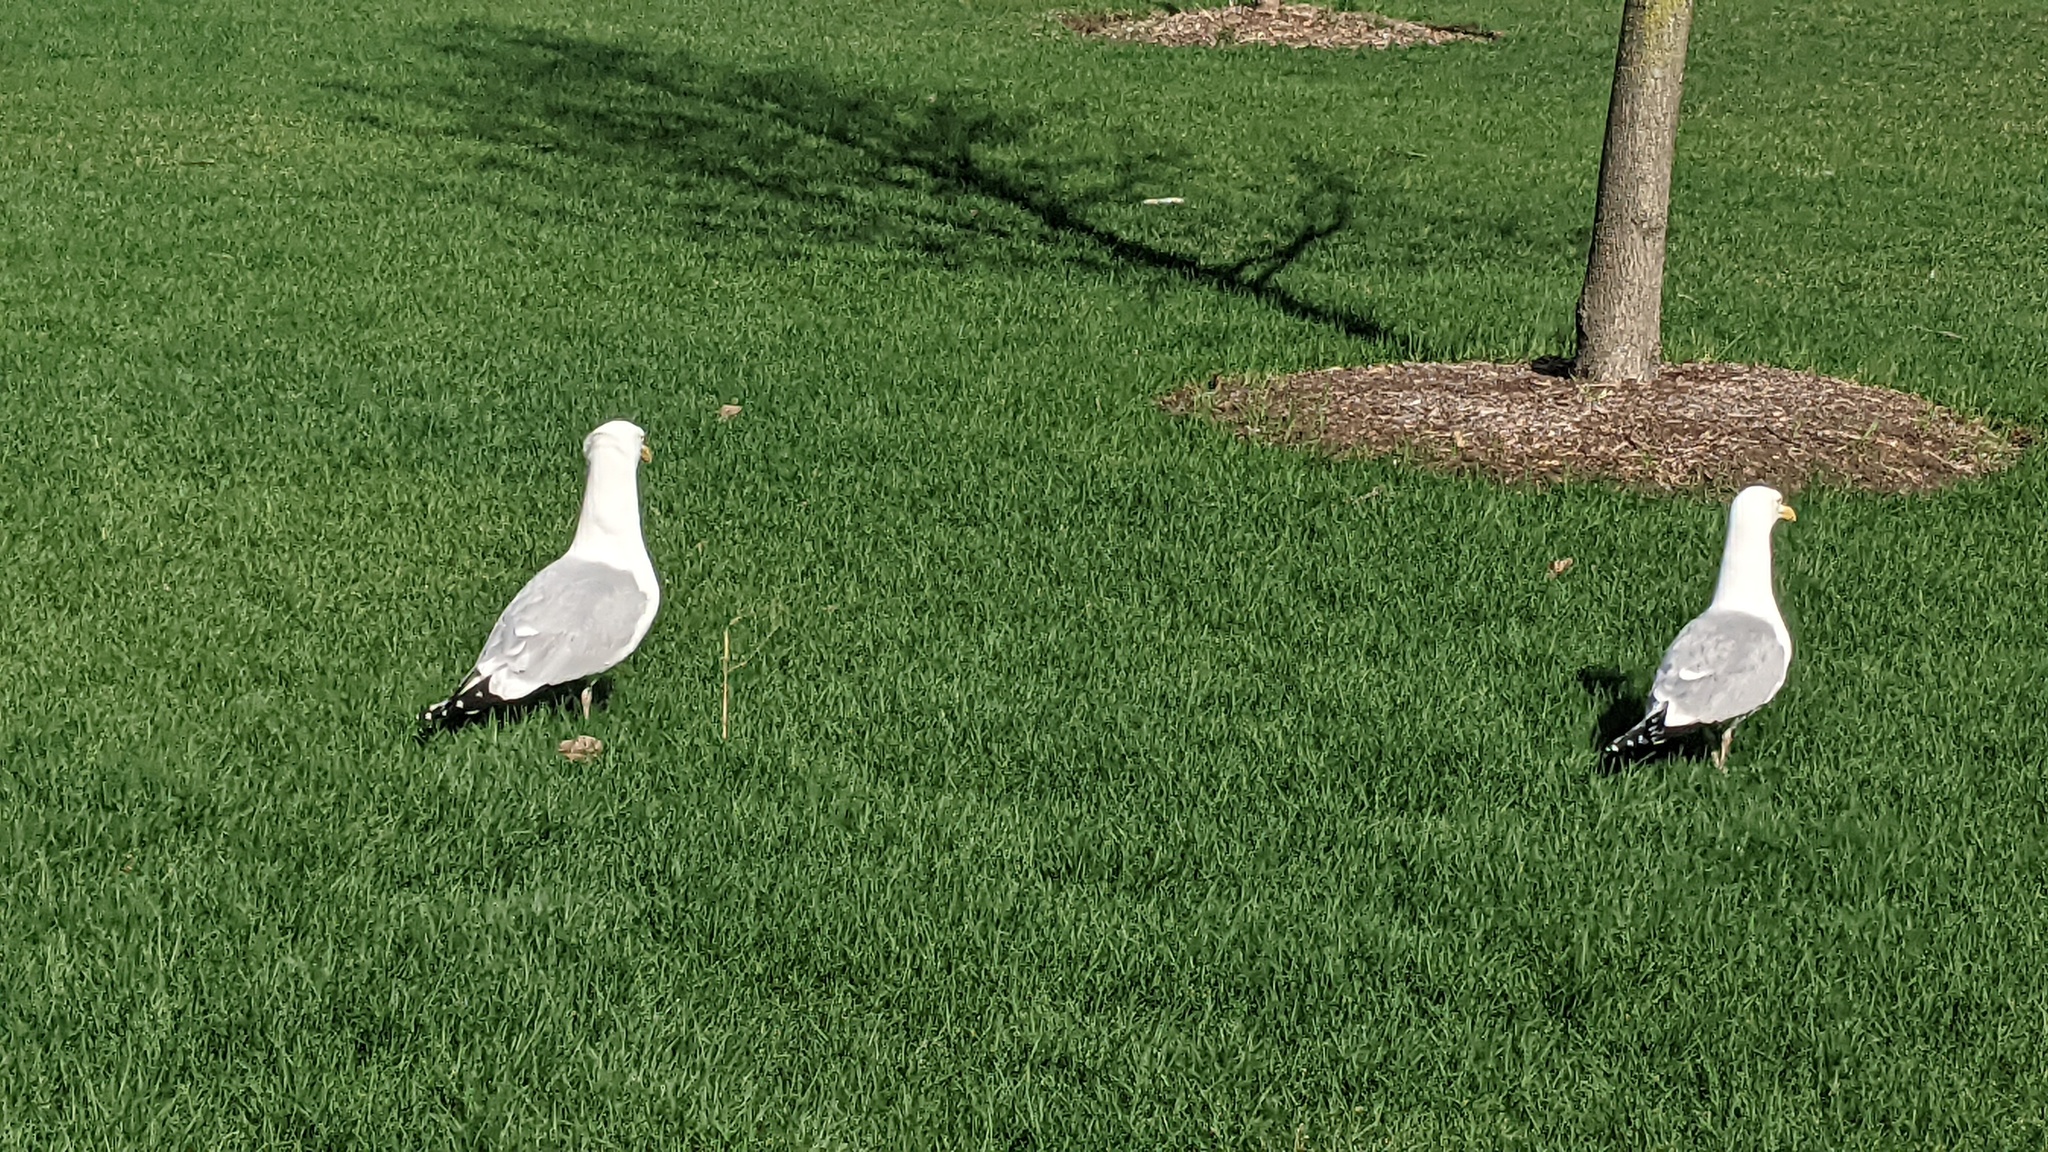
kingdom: Animalia
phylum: Chordata
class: Aves
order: Charadriiformes
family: Laridae
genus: Larus
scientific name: Larus argentatus
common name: Herring gull
